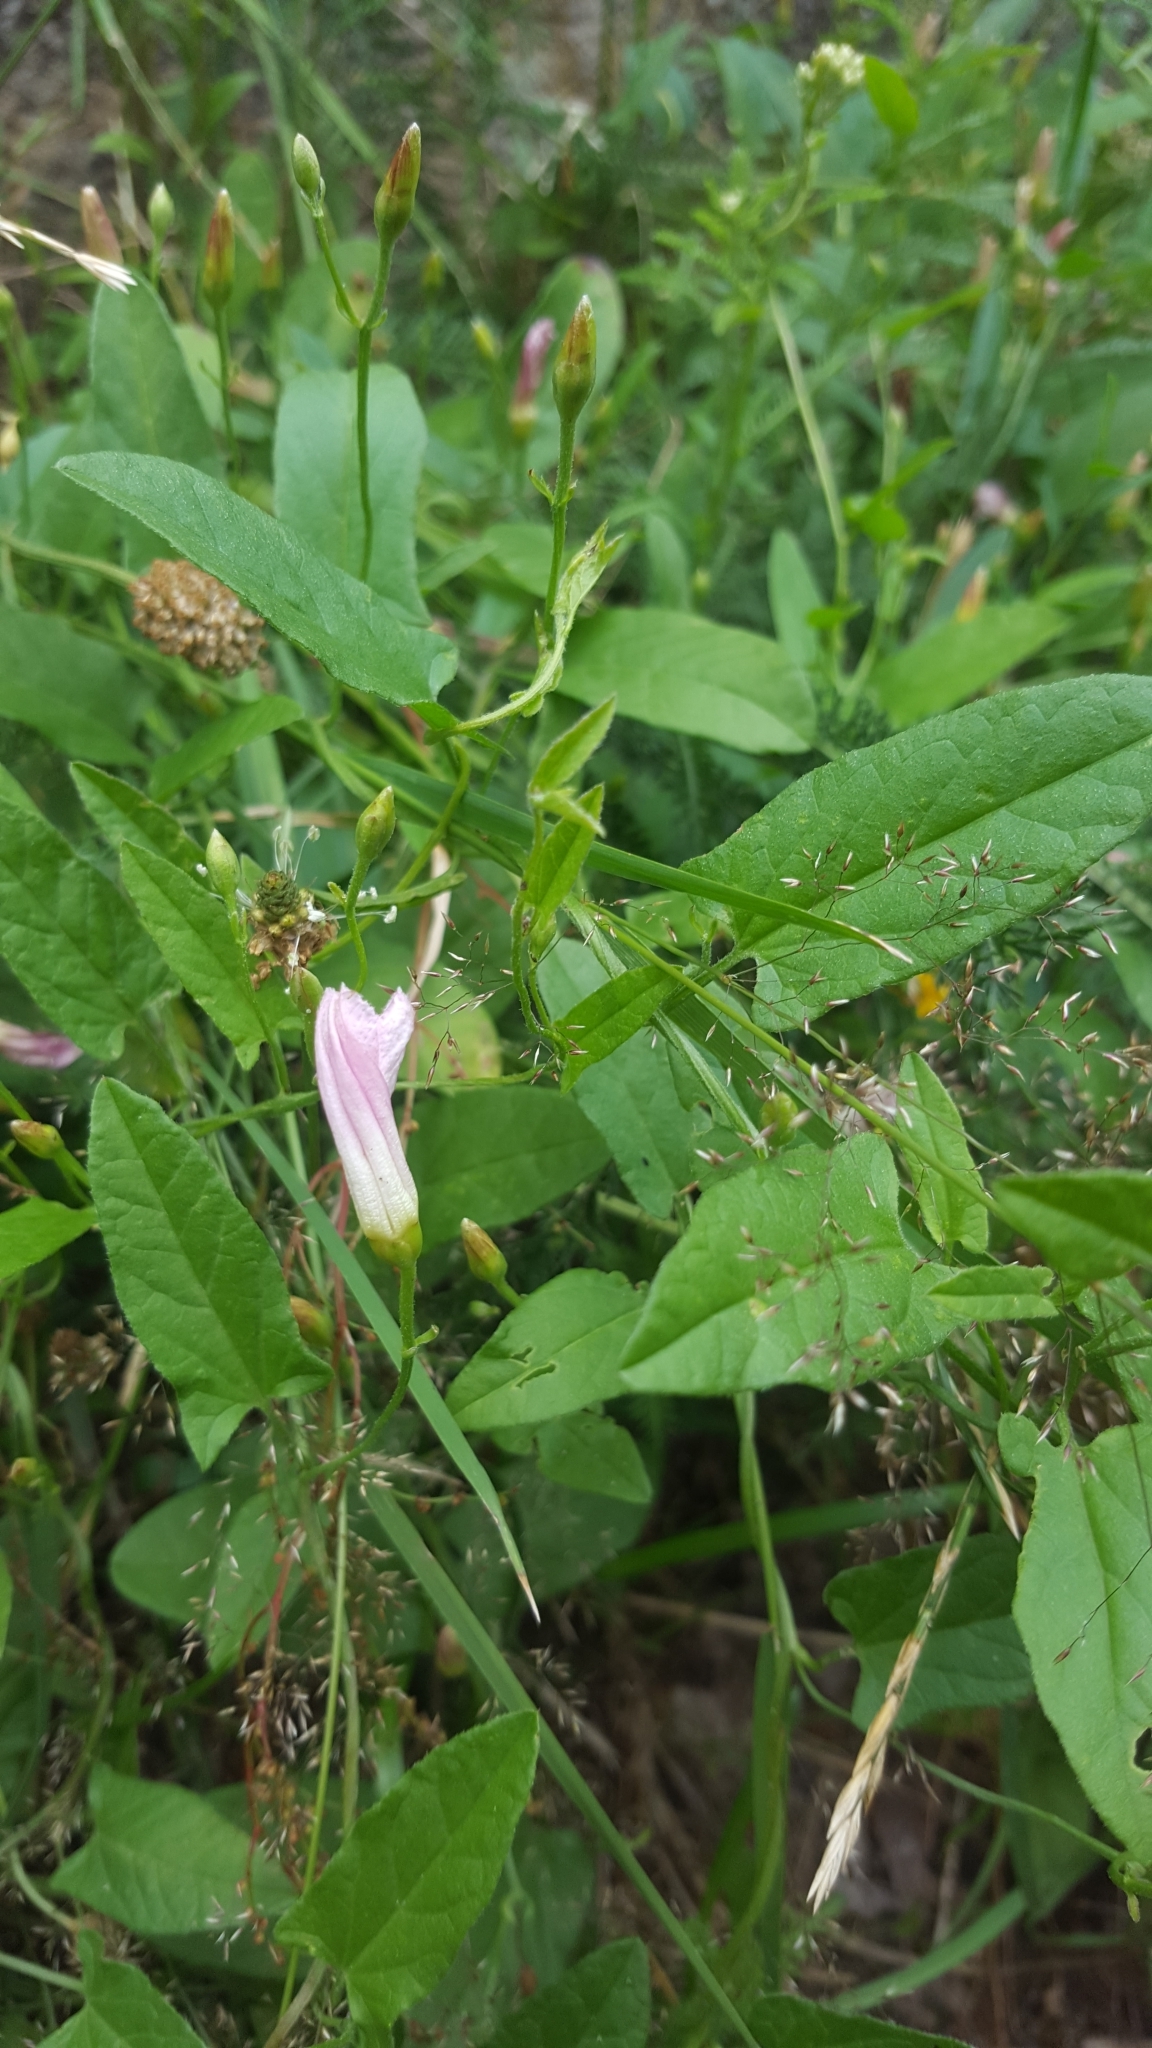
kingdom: Plantae
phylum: Tracheophyta
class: Magnoliopsida
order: Solanales
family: Convolvulaceae
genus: Convolvulus
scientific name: Convolvulus arvensis
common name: Field bindweed
